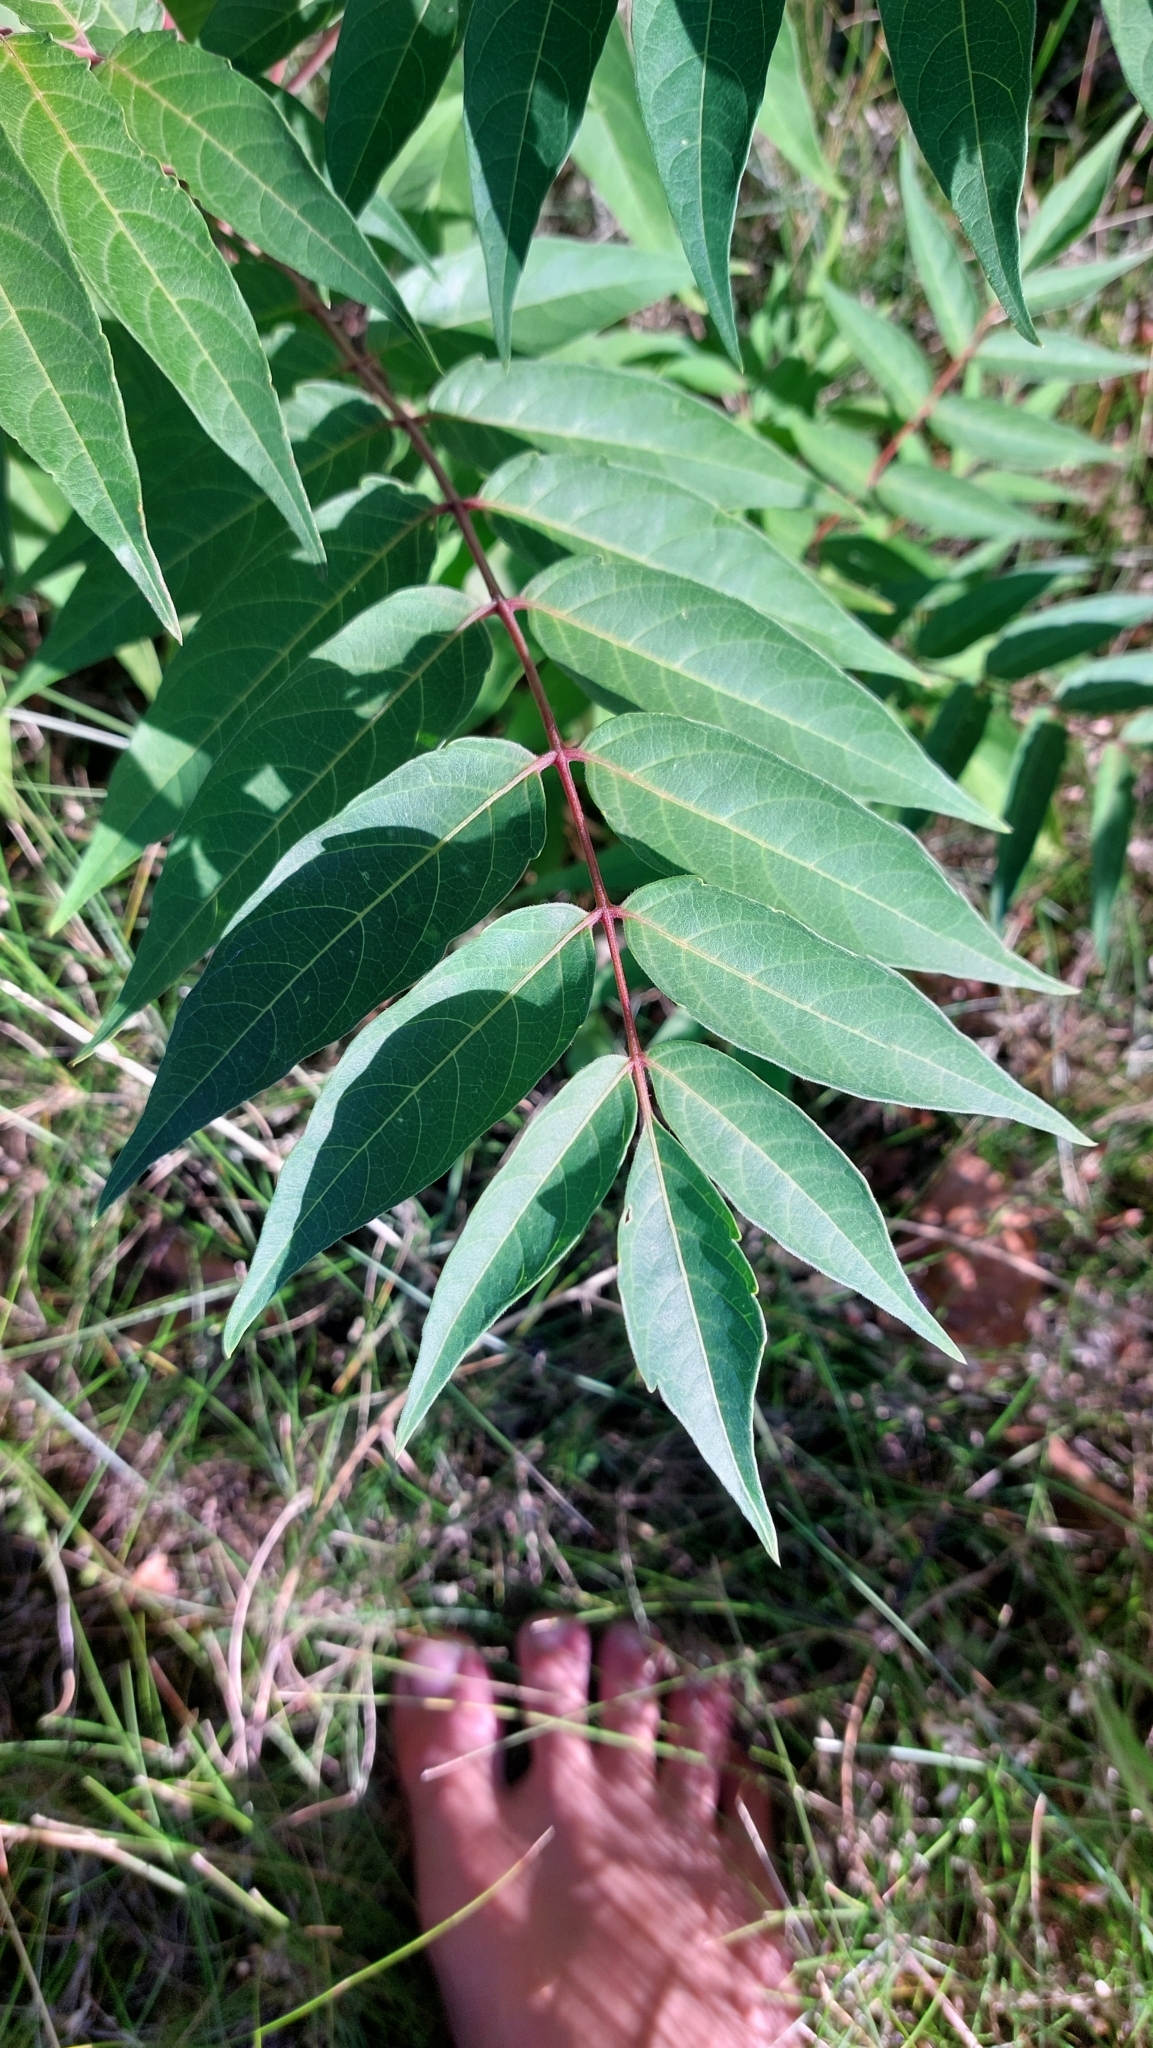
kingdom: Plantae
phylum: Tracheophyta
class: Magnoliopsida
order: Sapindales
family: Simaroubaceae
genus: Ailanthus
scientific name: Ailanthus altissima
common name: Tree-of-heaven
